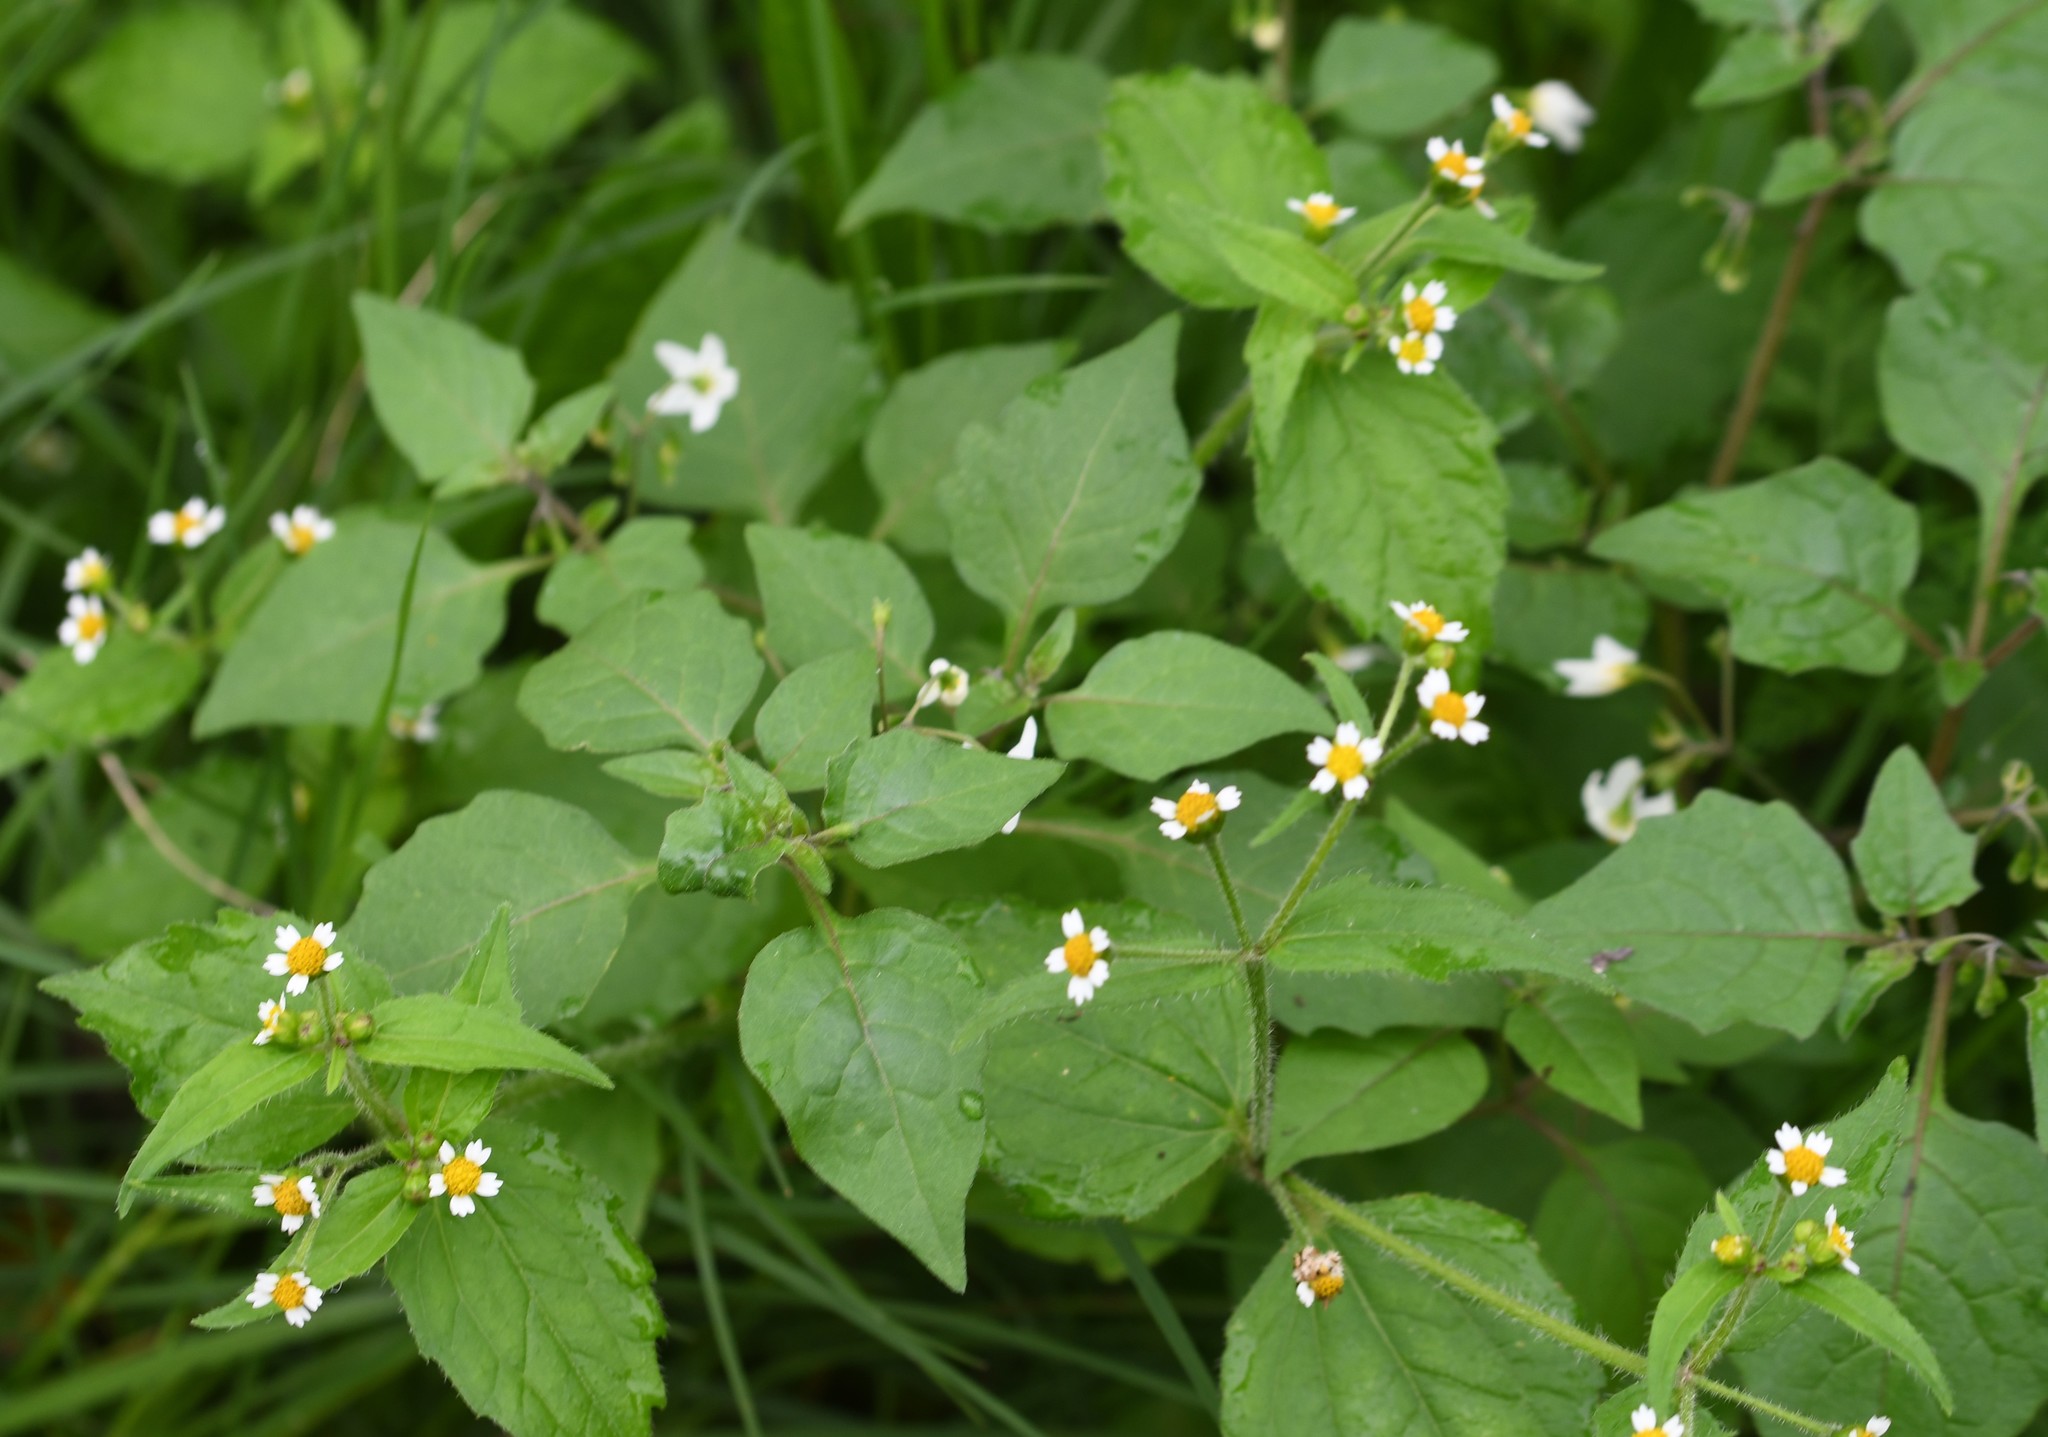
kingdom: Plantae
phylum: Tracheophyta
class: Magnoliopsida
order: Asterales
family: Asteraceae
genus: Galinsoga
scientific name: Galinsoga quadriradiata
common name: Shaggy soldier
